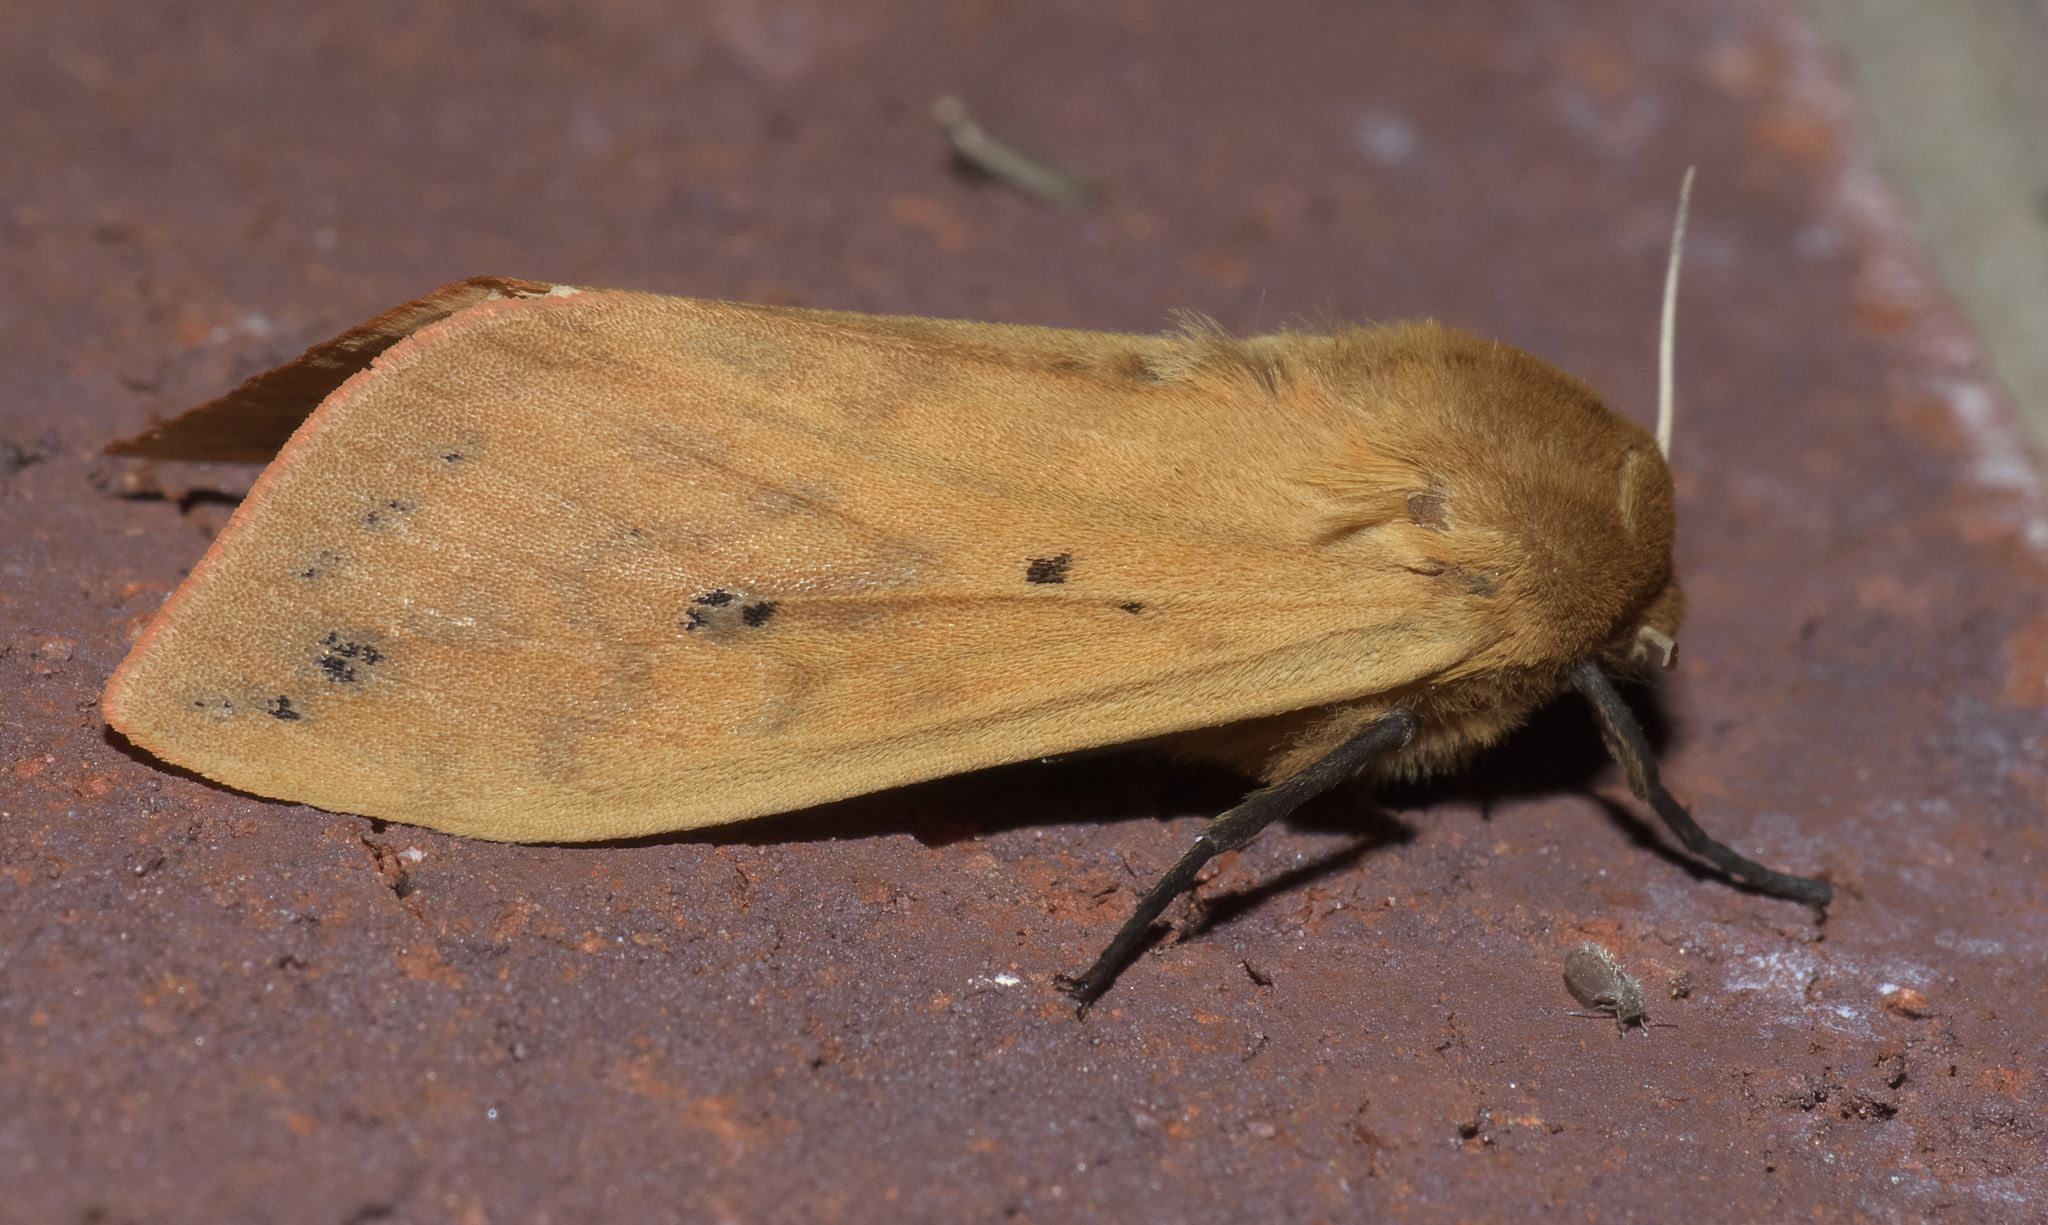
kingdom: Animalia
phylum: Arthropoda
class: Insecta
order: Lepidoptera
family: Erebidae
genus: Pyrrharctia
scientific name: Pyrrharctia isabella
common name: Isabella tiger moth
